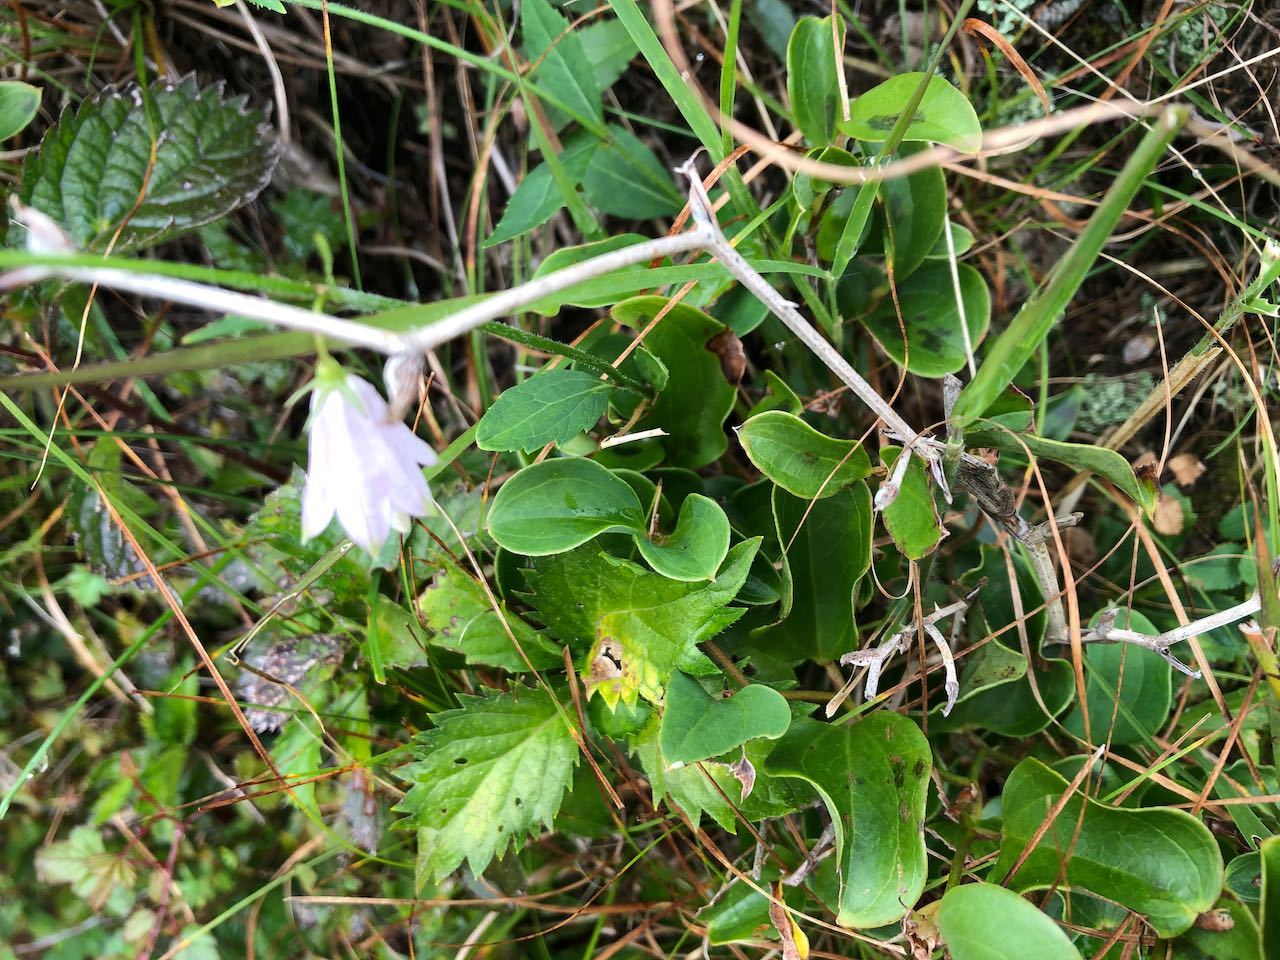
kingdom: Plantae
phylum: Tracheophyta
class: Magnoliopsida
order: Asterales
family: Campanulaceae
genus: Adenophora
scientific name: Adenophora triphylla
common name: Giant-bellflower
